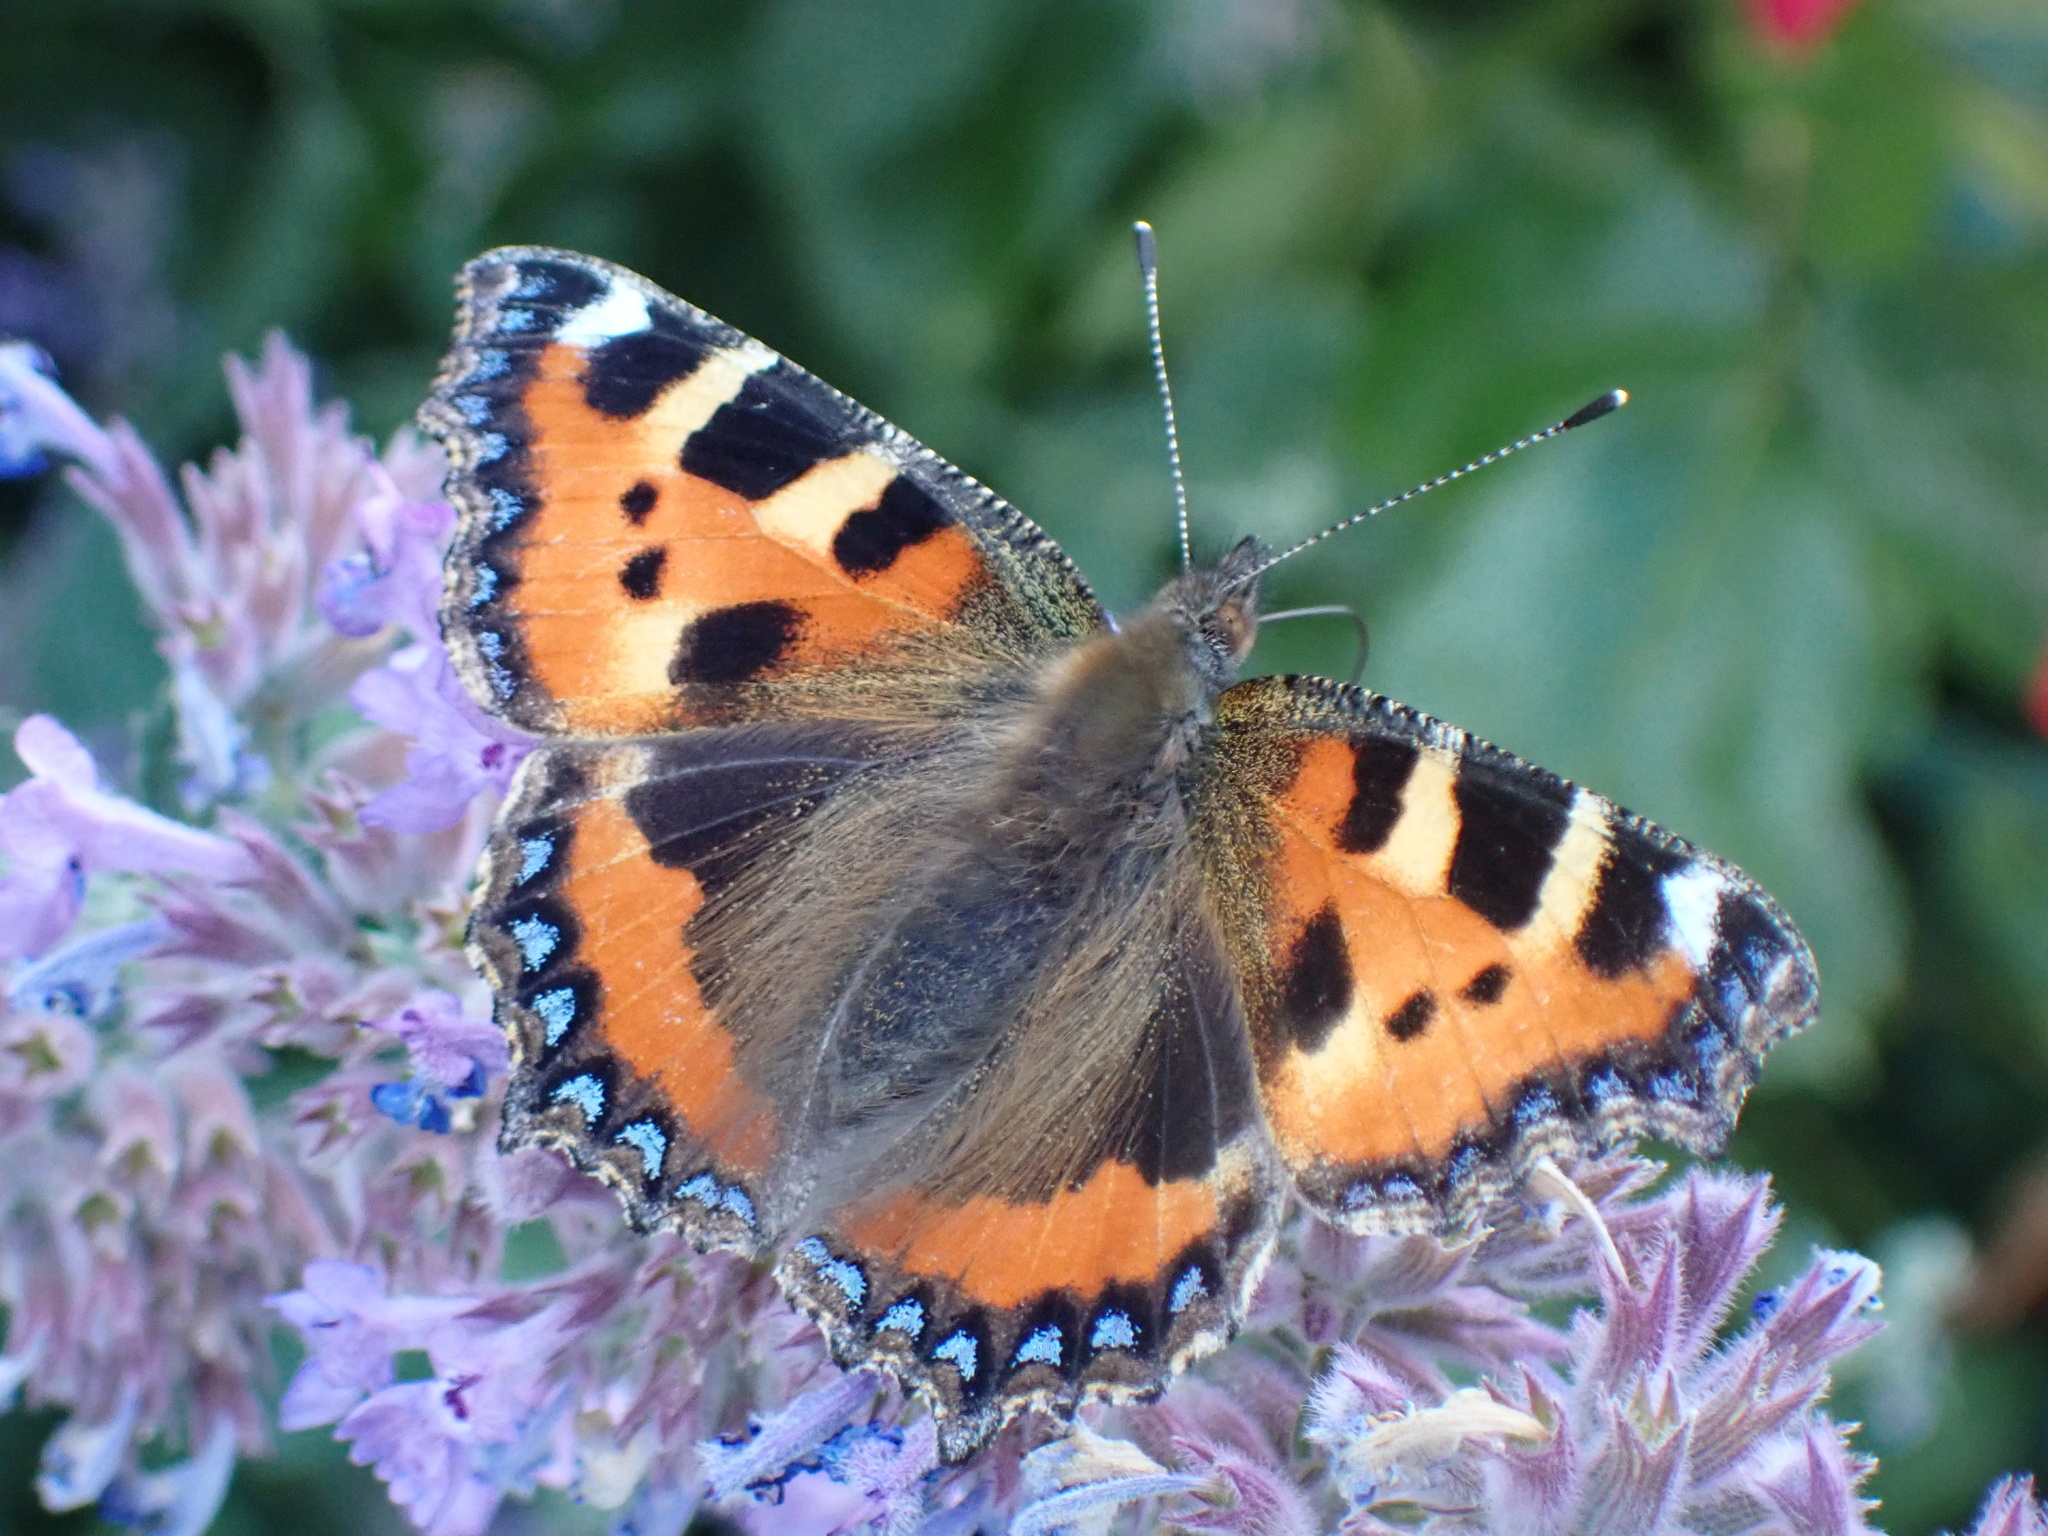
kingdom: Animalia
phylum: Arthropoda
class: Insecta
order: Lepidoptera
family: Nymphalidae
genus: Aglais
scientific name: Aglais urticae
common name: Small tortoiseshell
